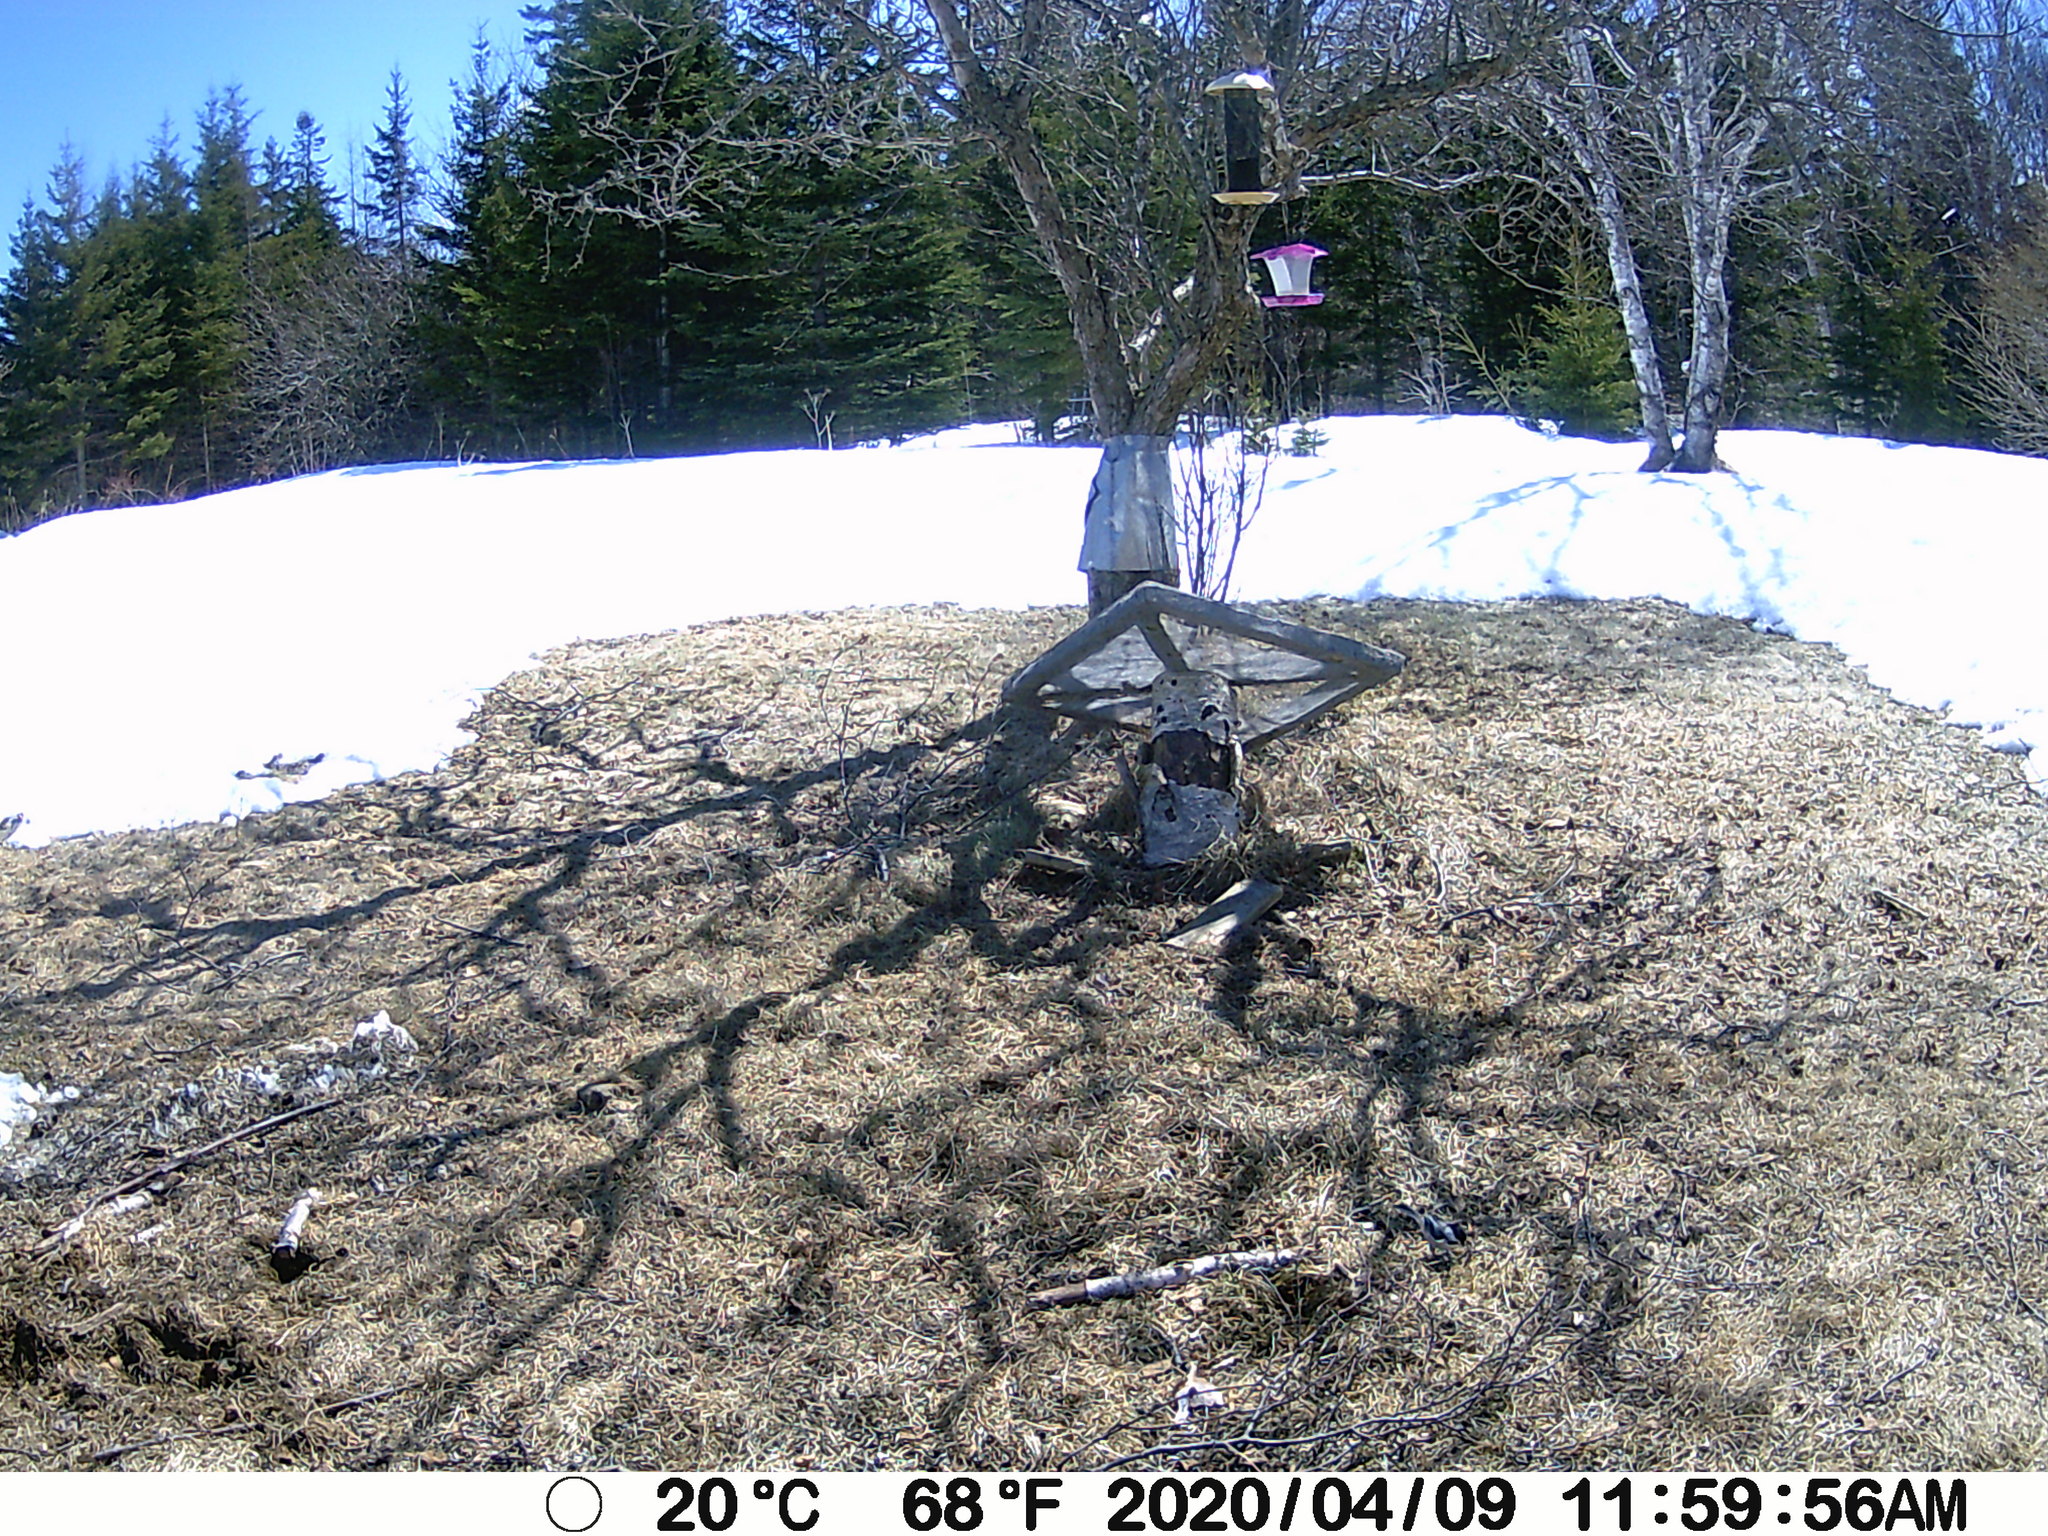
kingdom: Animalia
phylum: Chordata
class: Aves
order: Passeriformes
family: Paridae
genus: Poecile
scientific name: Poecile atricapillus
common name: Black-capped chickadee
